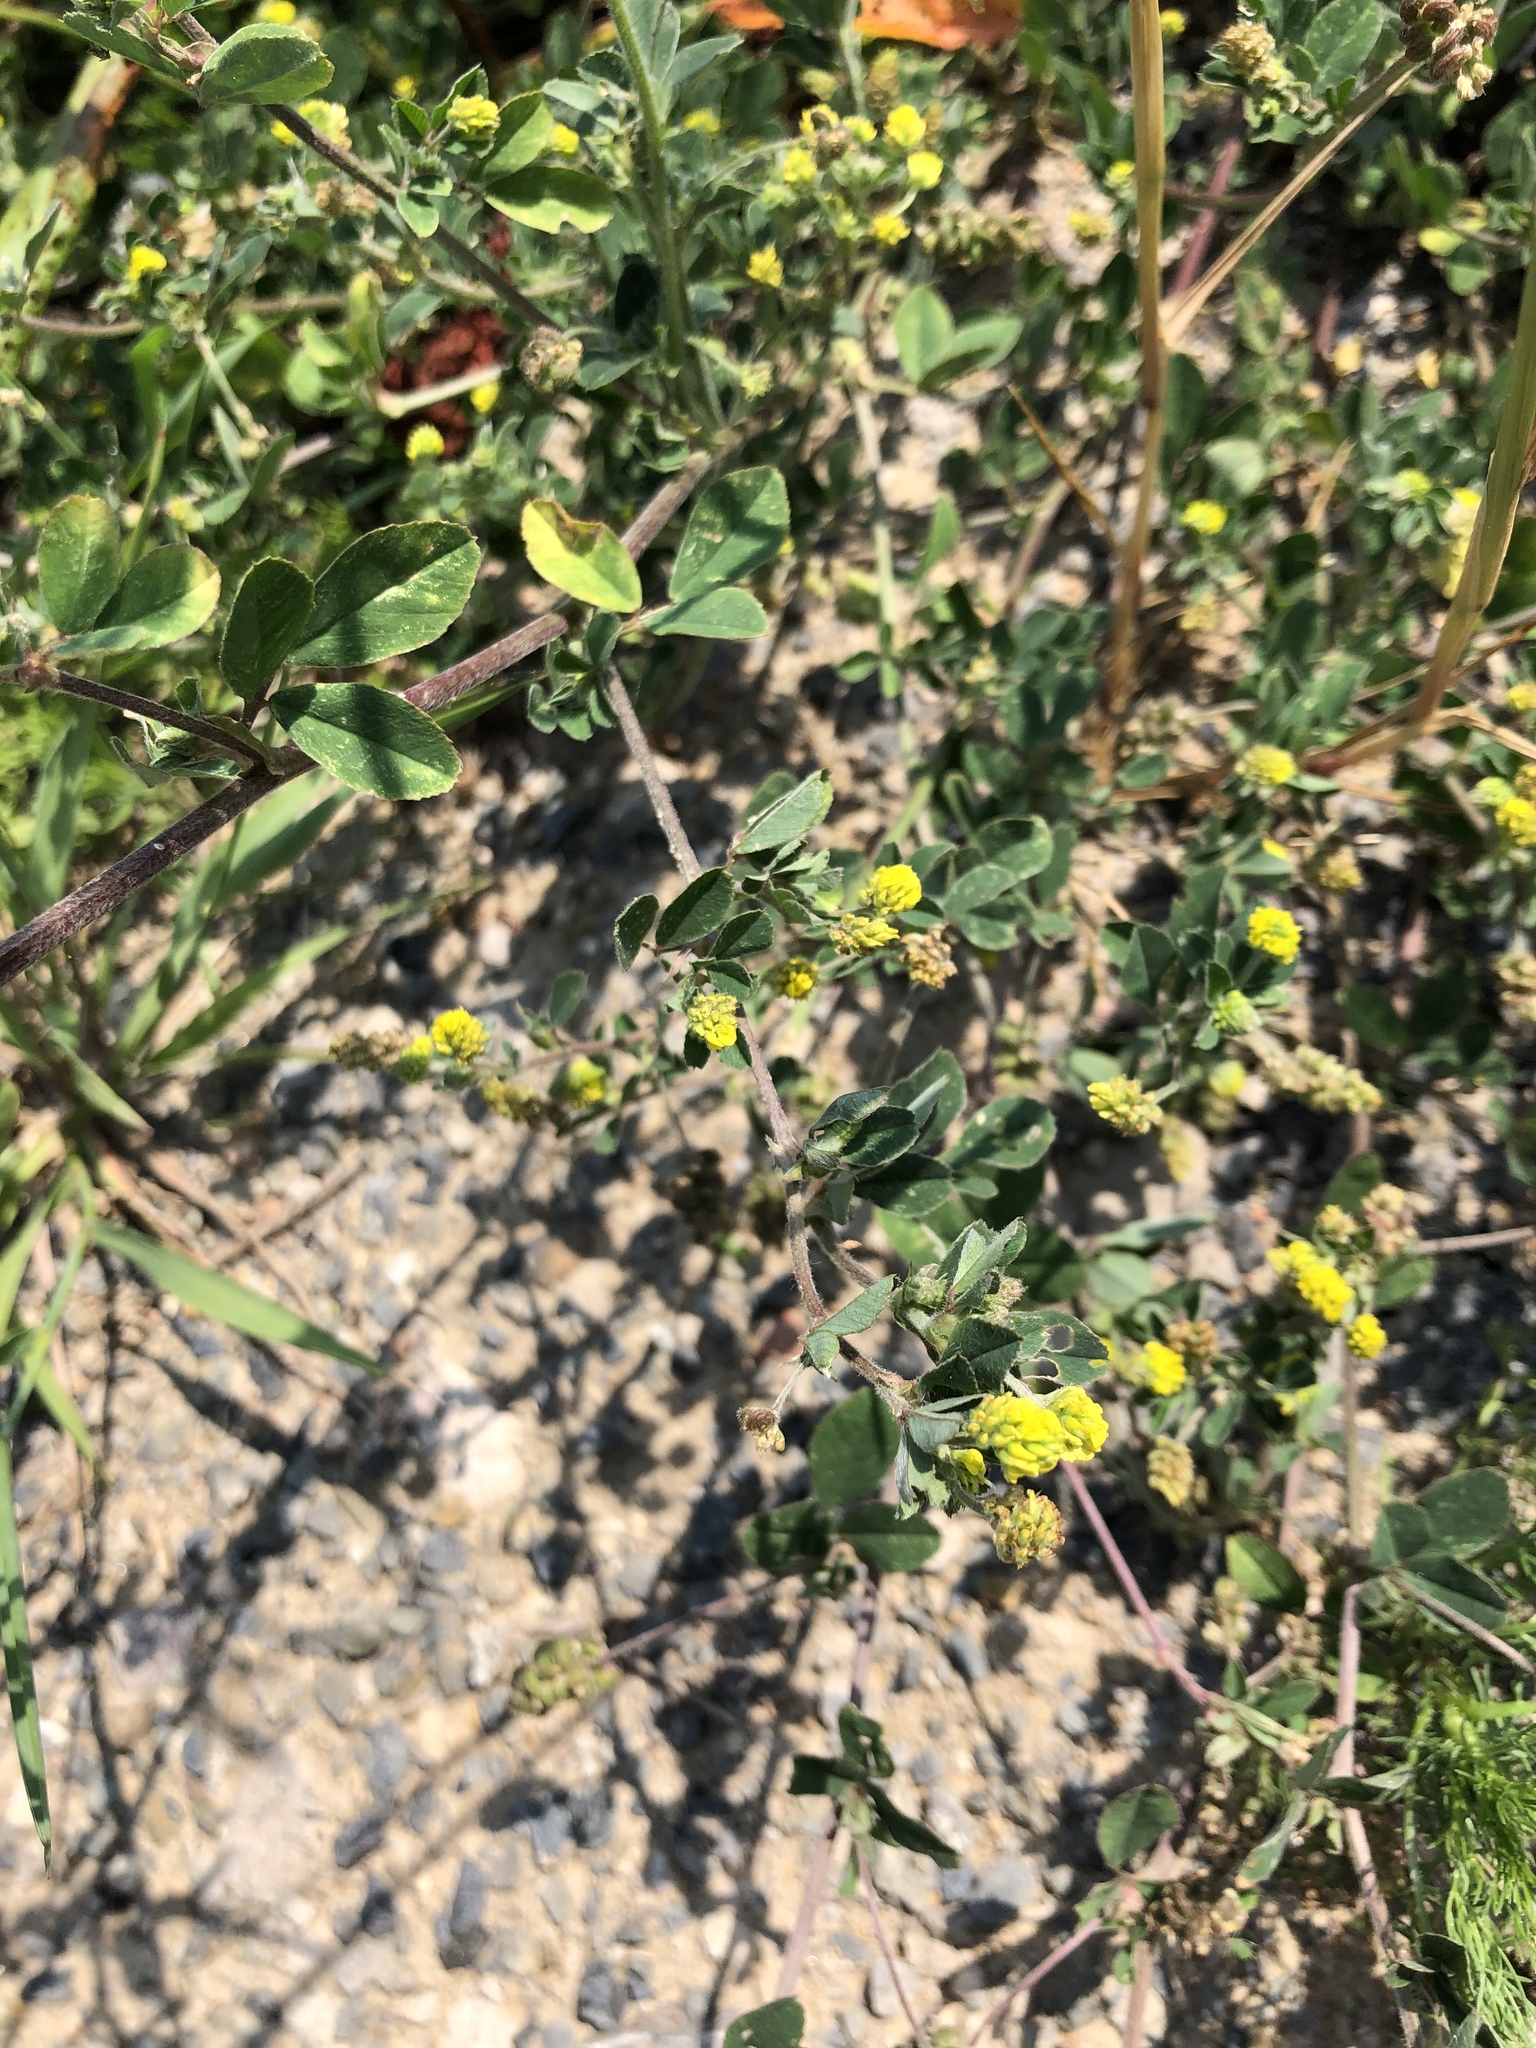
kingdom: Plantae
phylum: Tracheophyta
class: Magnoliopsida
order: Fabales
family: Fabaceae
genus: Medicago
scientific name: Medicago lupulina
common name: Black medick
